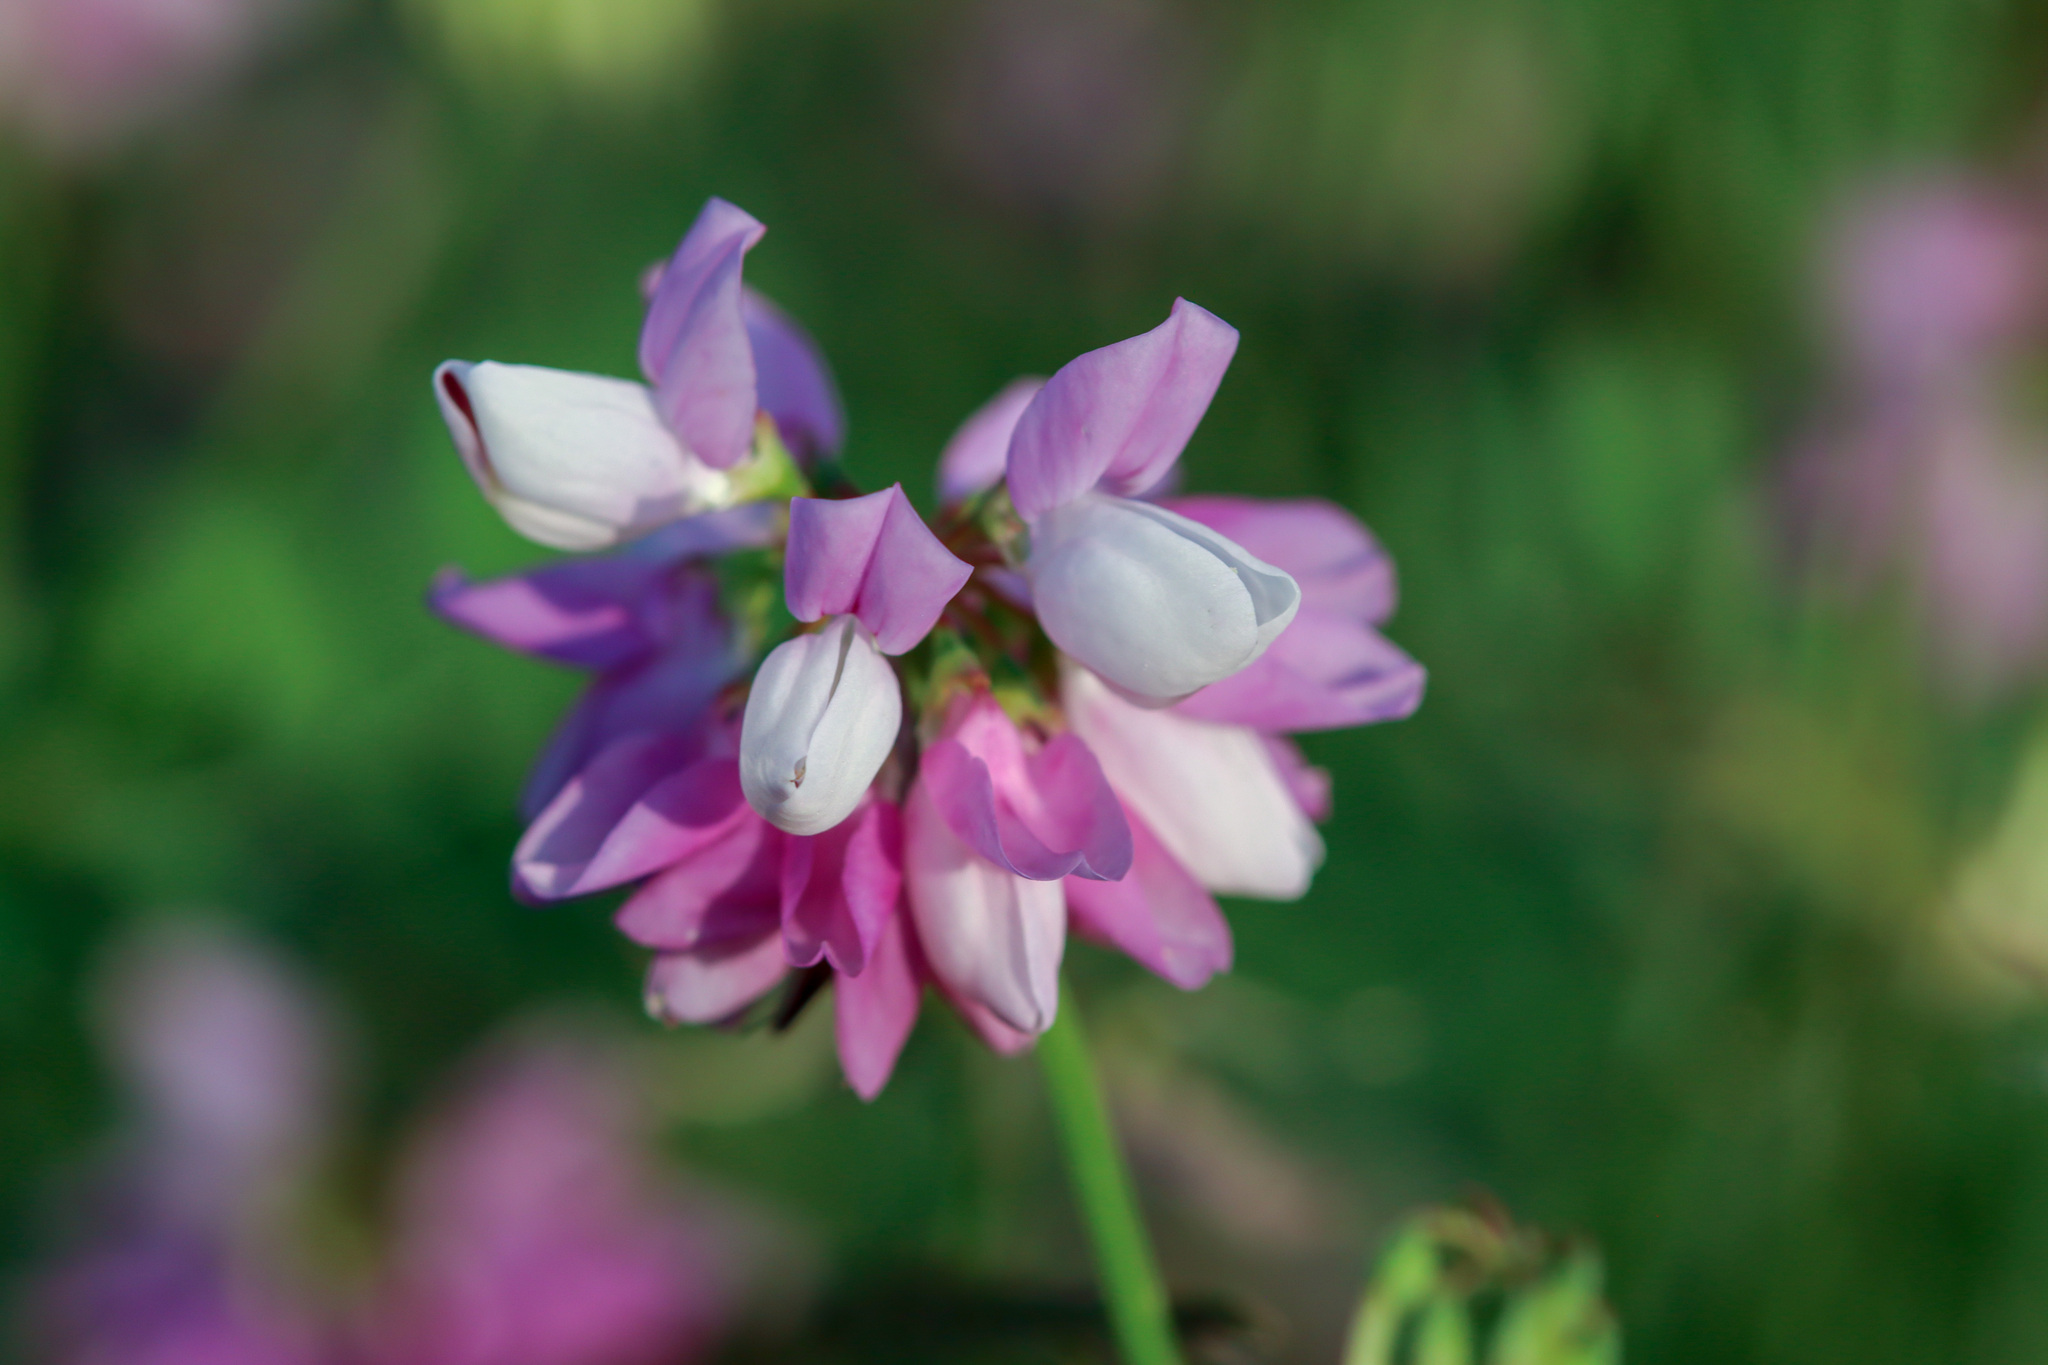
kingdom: Plantae
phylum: Tracheophyta
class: Magnoliopsida
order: Fabales
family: Fabaceae
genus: Coronilla
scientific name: Coronilla varia
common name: Crownvetch
